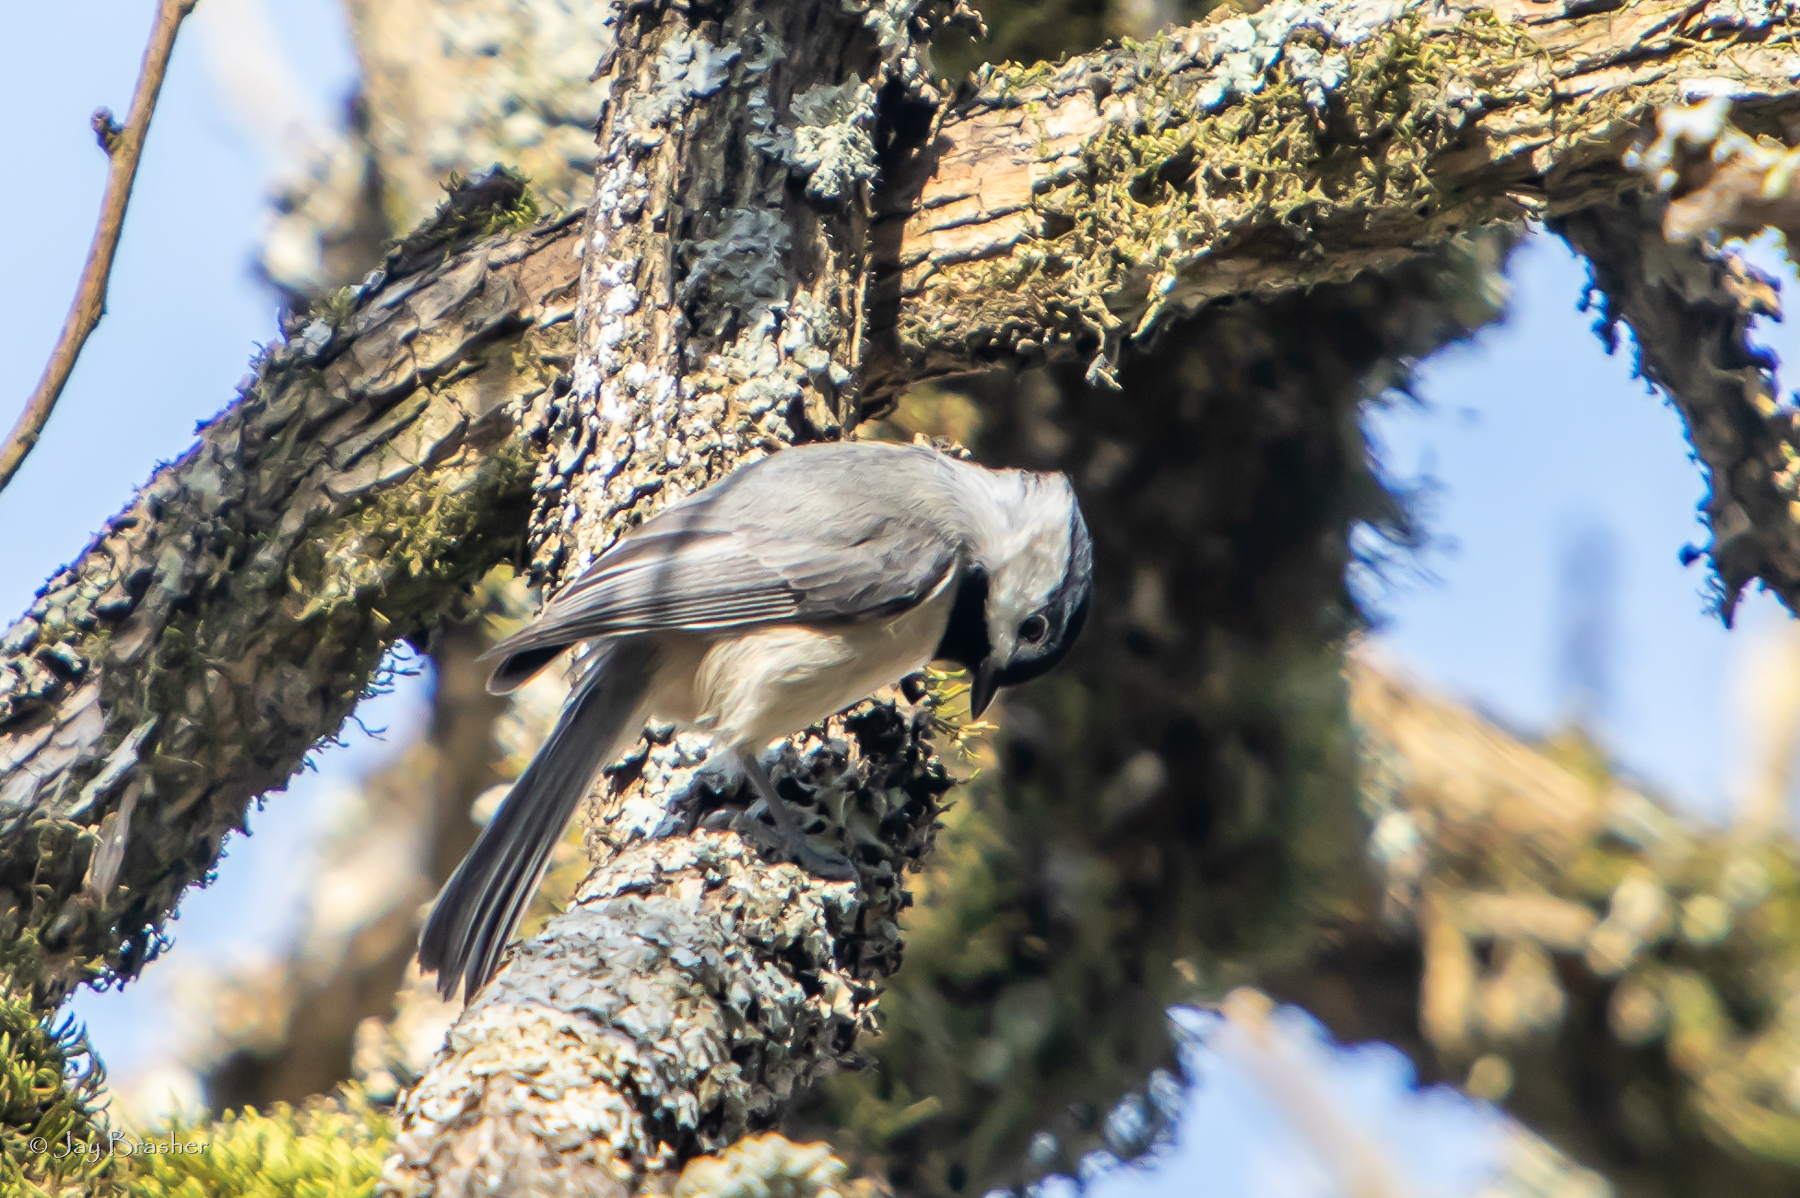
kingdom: Animalia
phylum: Chordata
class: Aves
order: Passeriformes
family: Paridae
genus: Poecile
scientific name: Poecile carolinensis
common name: Carolina chickadee
